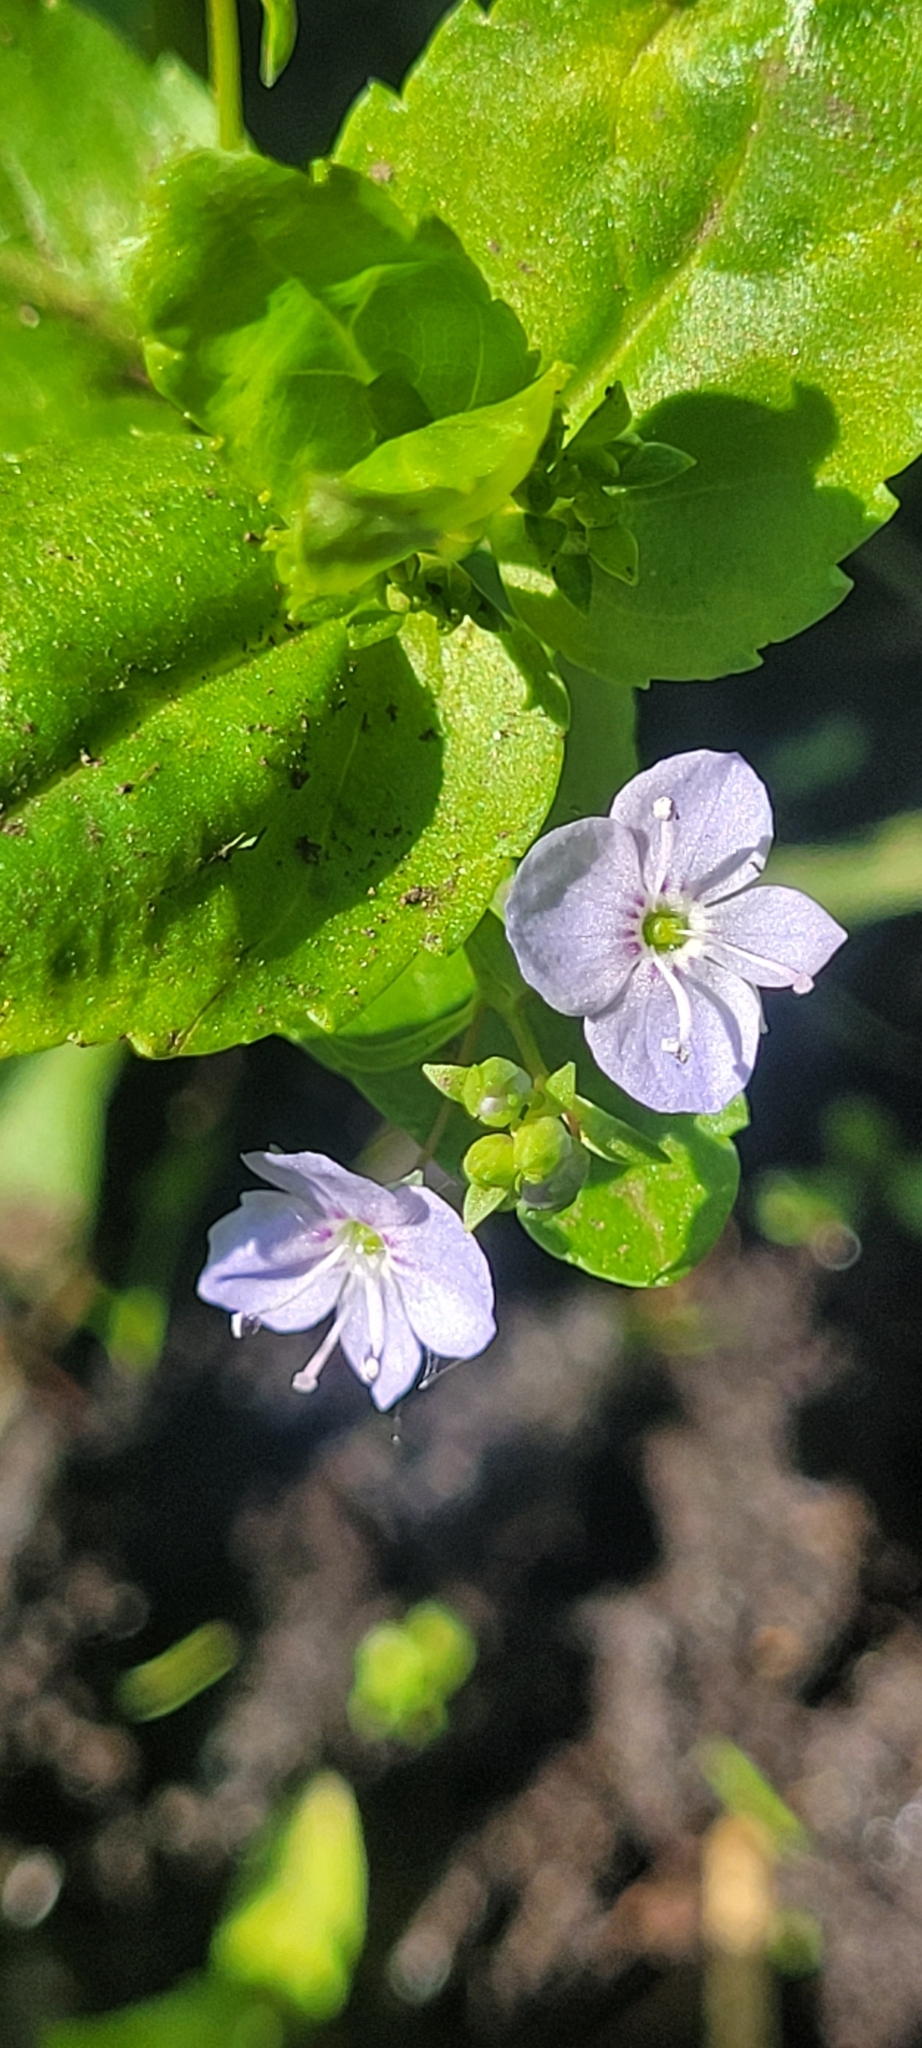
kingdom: Plantae
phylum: Tracheophyta
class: Magnoliopsida
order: Lamiales
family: Plantaginaceae
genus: Veronica
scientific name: Veronica americana
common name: American brooklime
